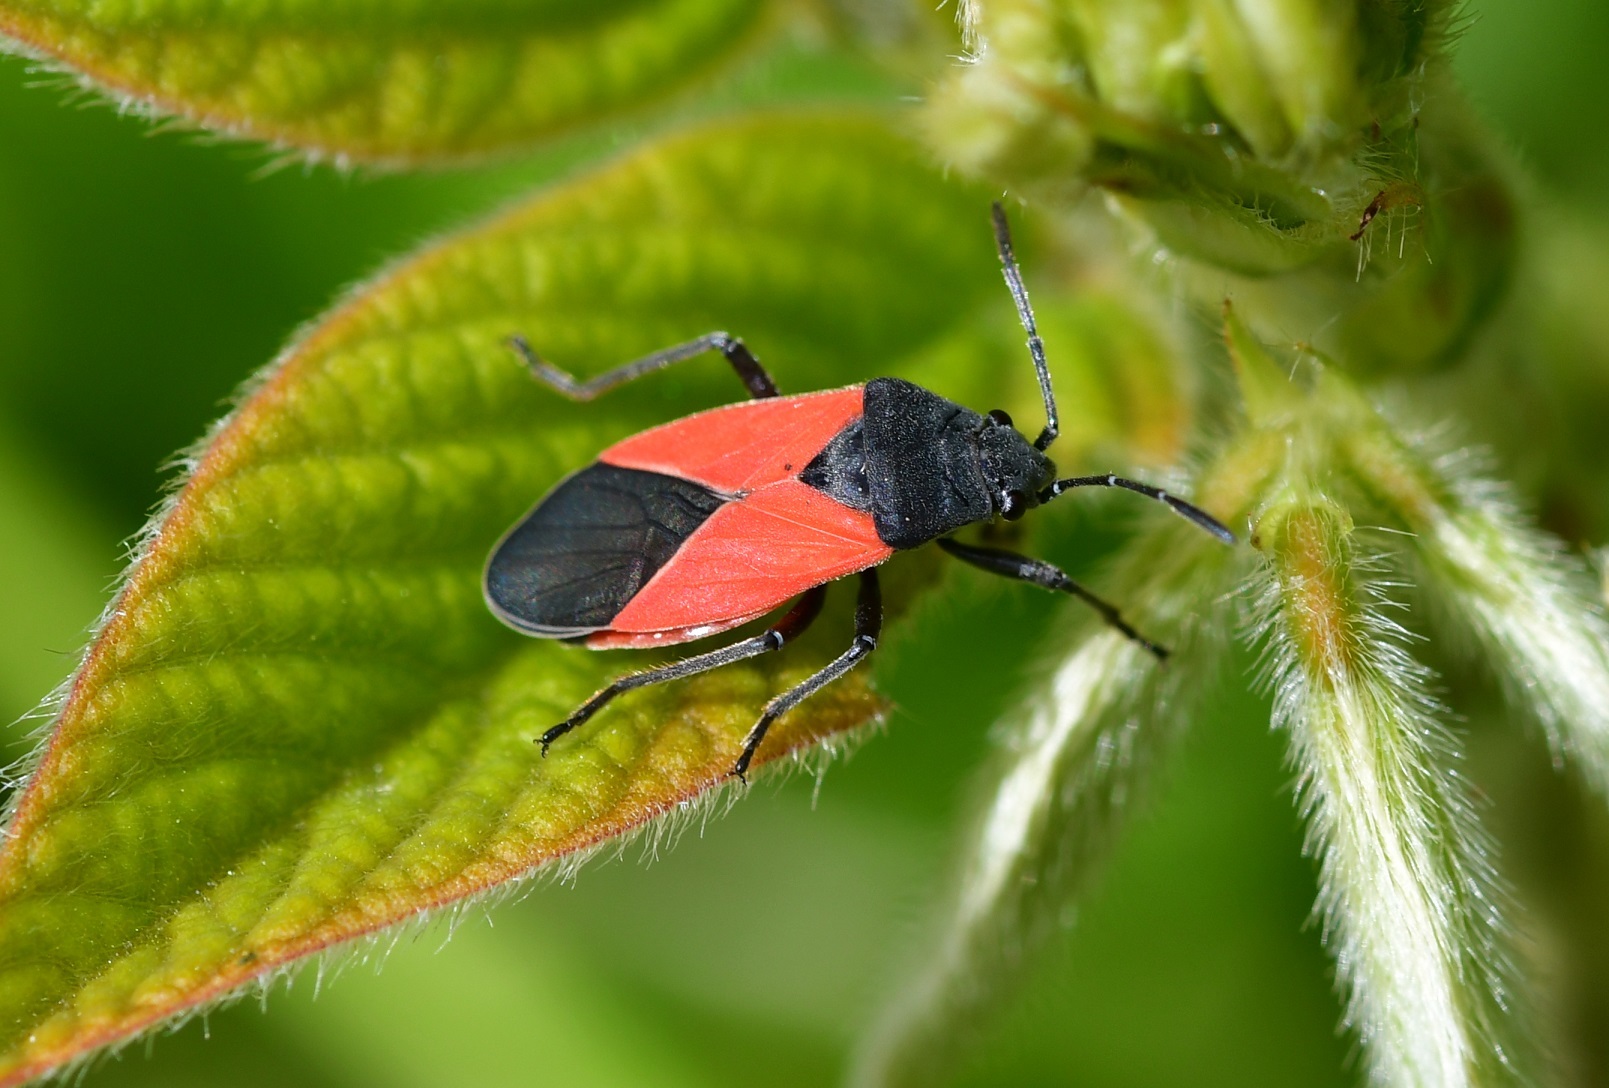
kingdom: Animalia
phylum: Arthropoda
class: Insecta
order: Hemiptera
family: Lygaeidae
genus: Melanopleurus
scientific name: Melanopleurus bicolor
